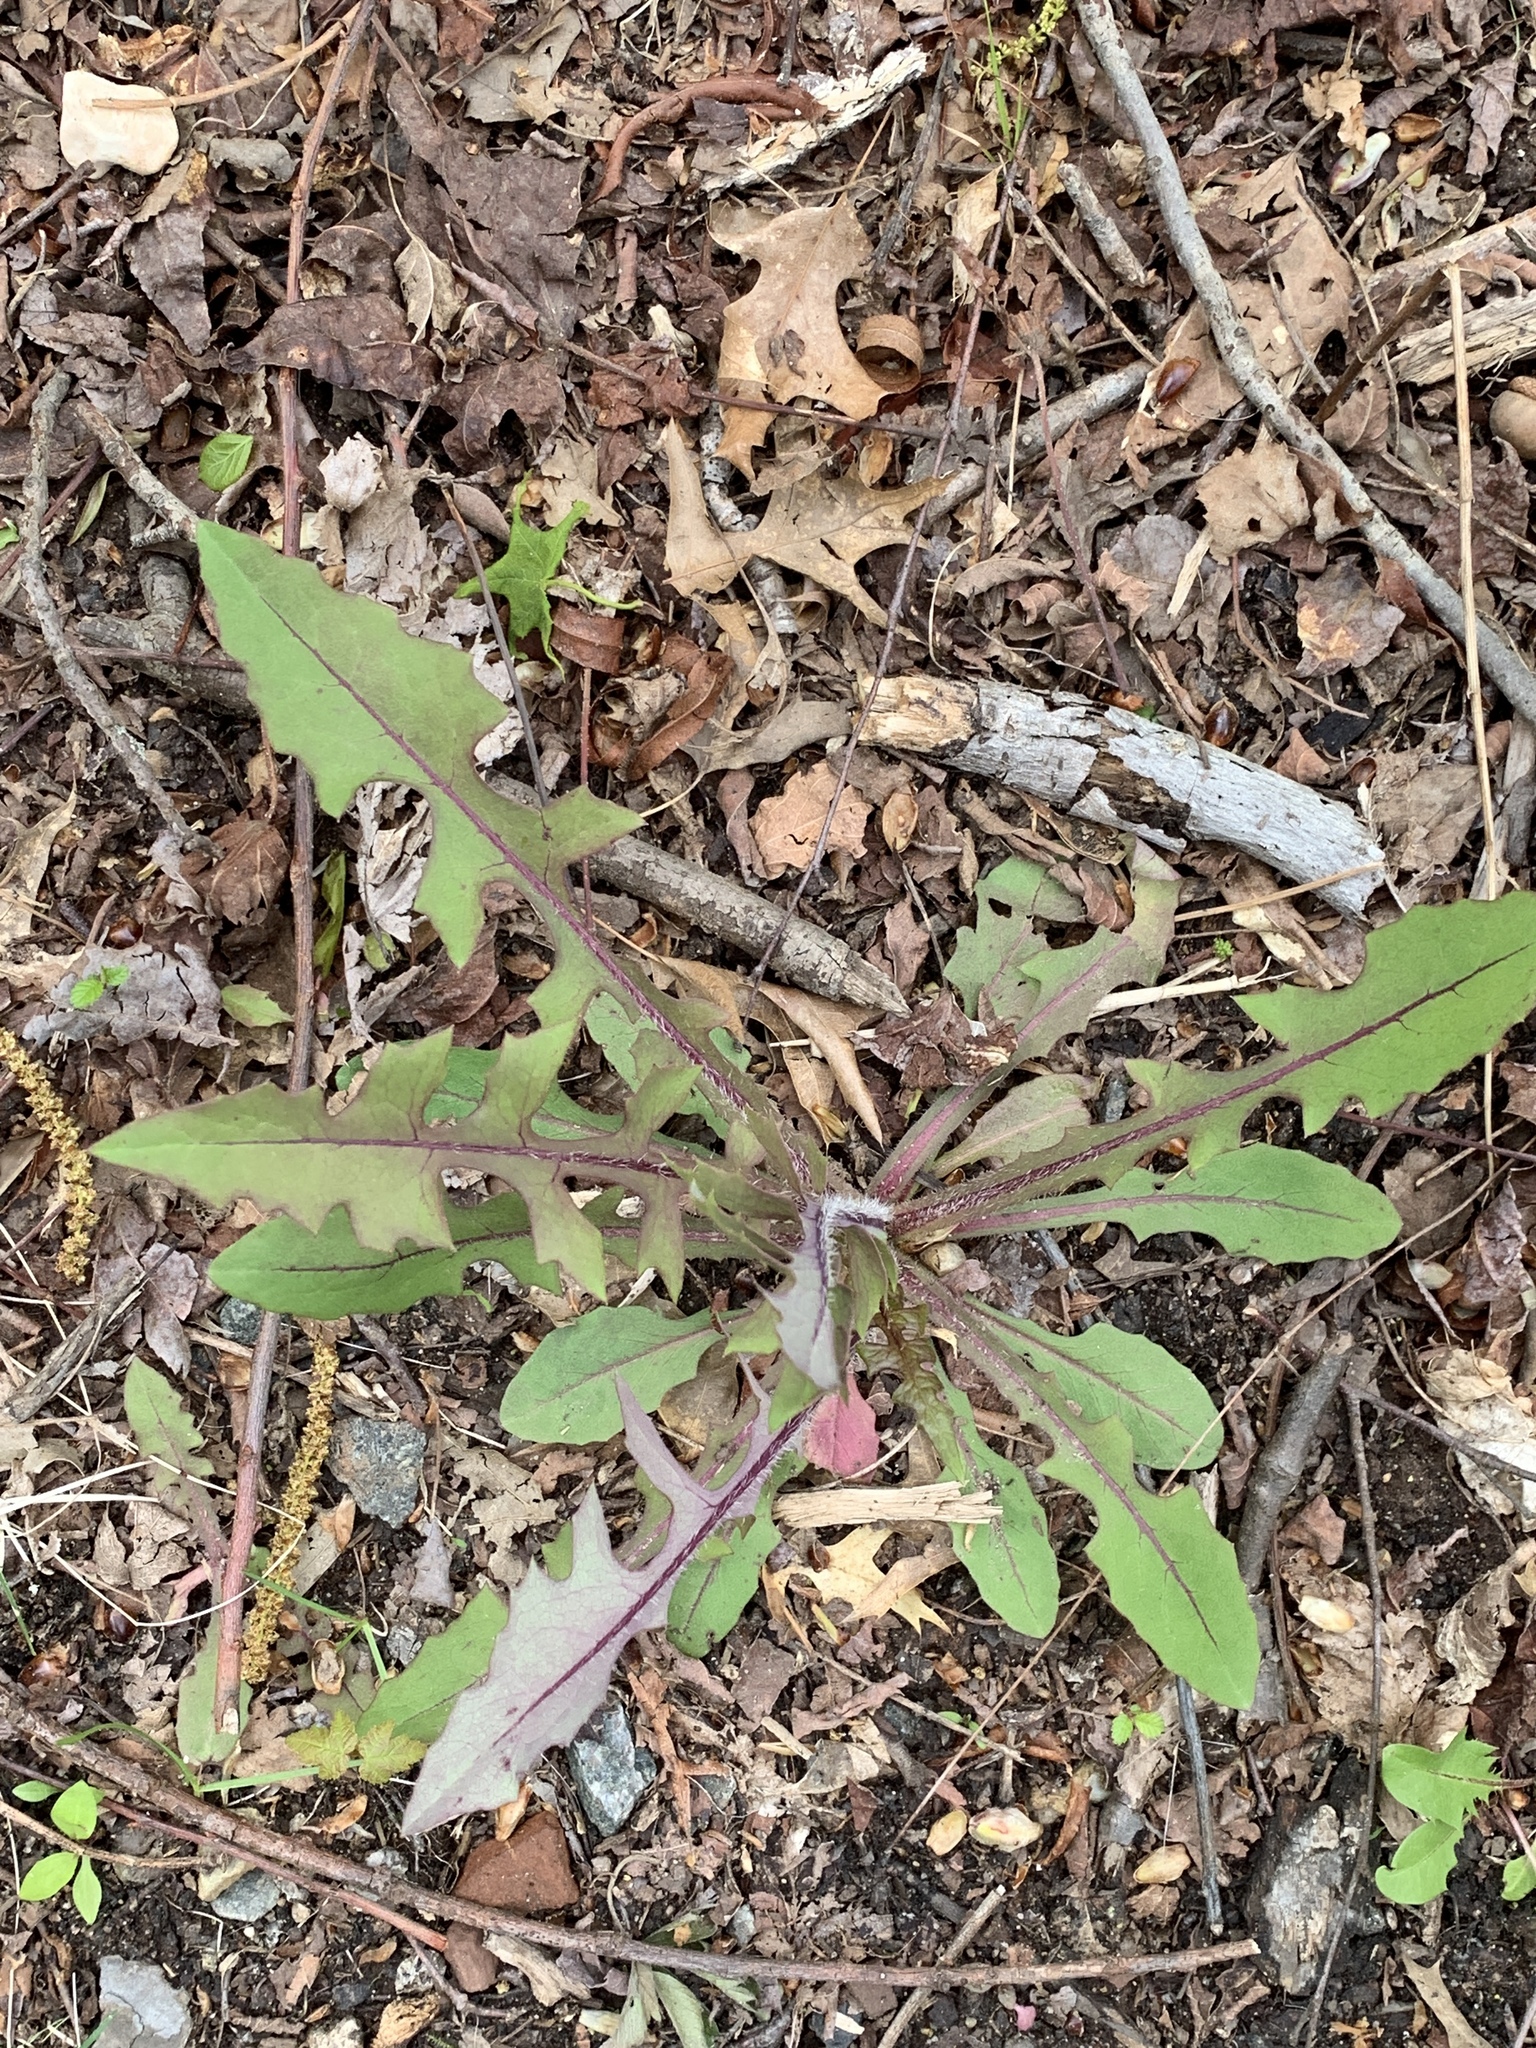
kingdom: Plantae
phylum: Tracheophyta
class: Magnoliopsida
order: Asterales
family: Asteraceae
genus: Lactuca
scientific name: Lactuca serriola
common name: Prickly lettuce
